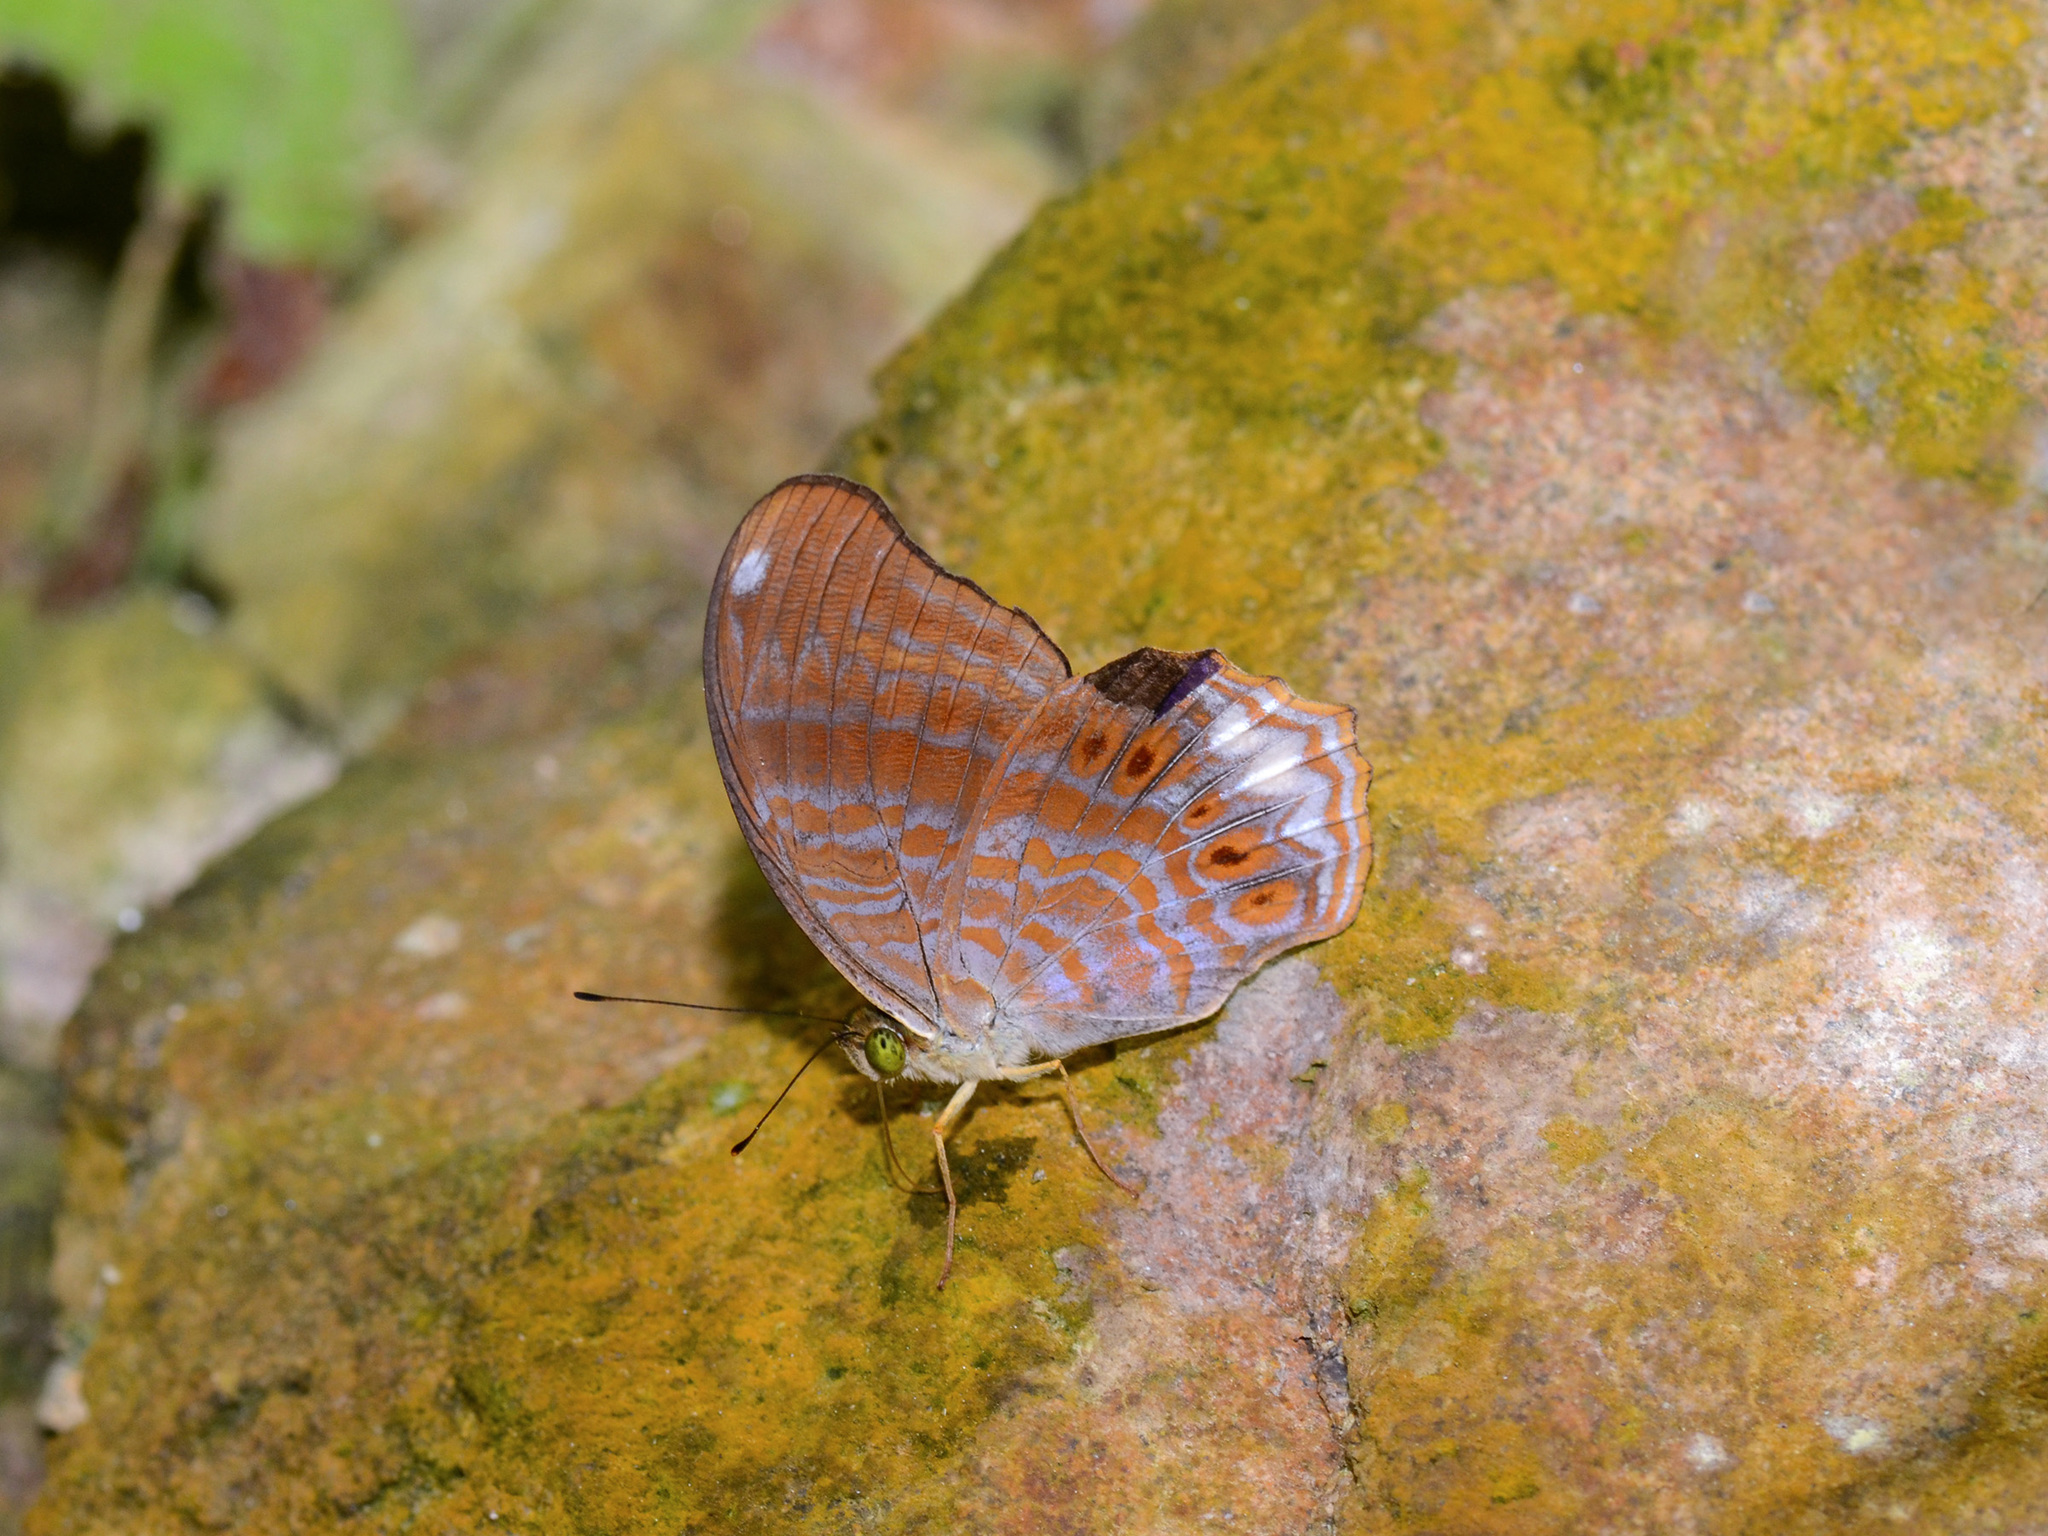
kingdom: Animalia
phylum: Arthropoda
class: Insecta
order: Lepidoptera
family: Nymphalidae
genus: Terinos
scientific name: Terinos terpander
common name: Royal assyrian
